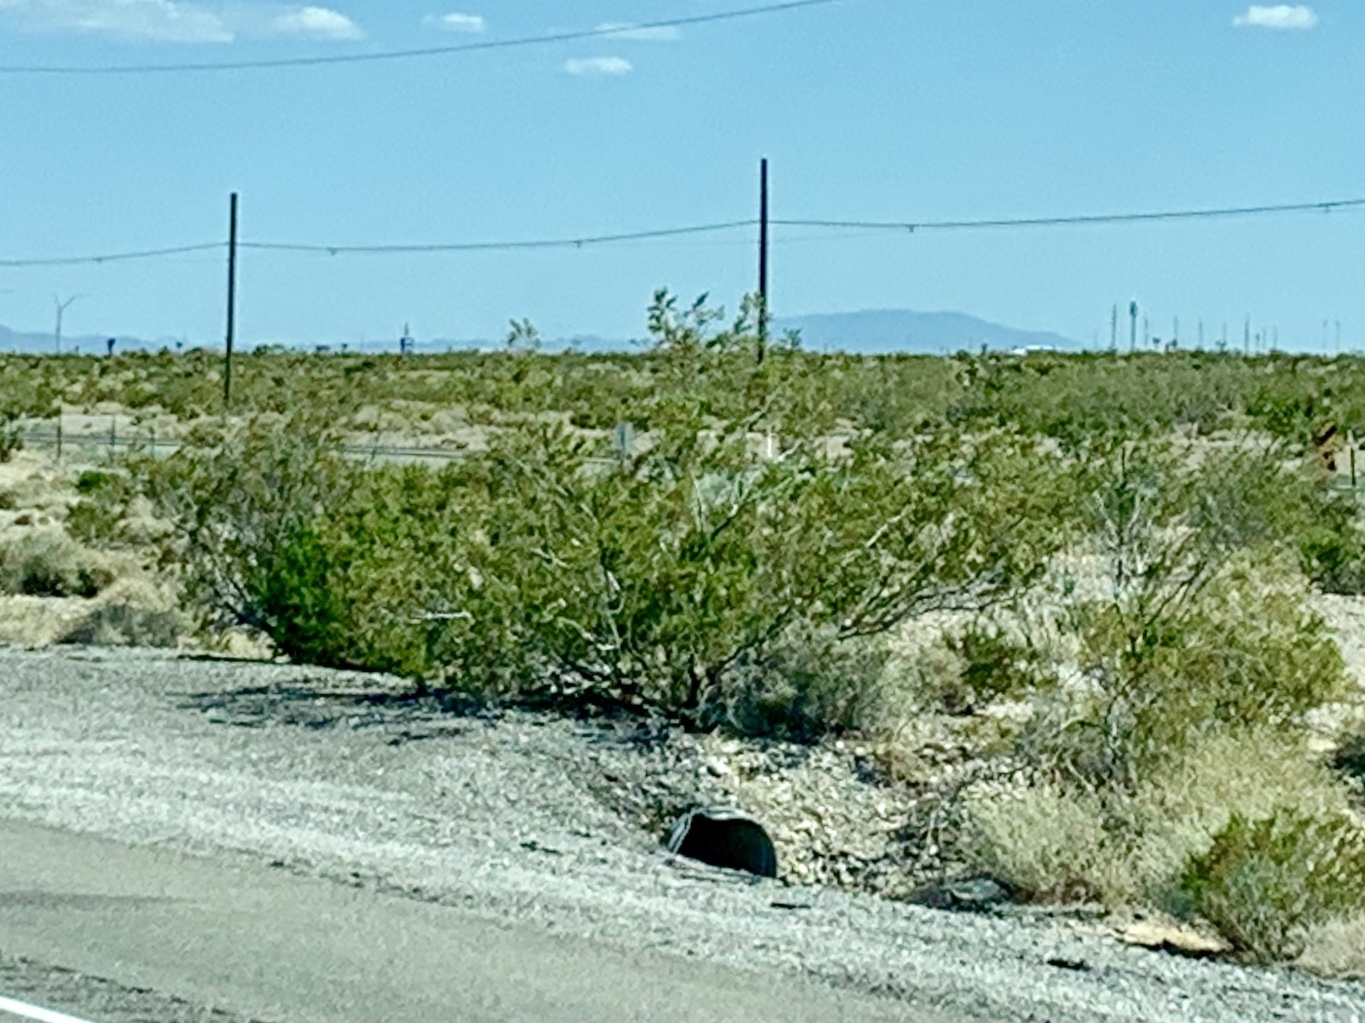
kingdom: Plantae
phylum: Tracheophyta
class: Magnoliopsida
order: Zygophyllales
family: Zygophyllaceae
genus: Larrea
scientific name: Larrea tridentata
